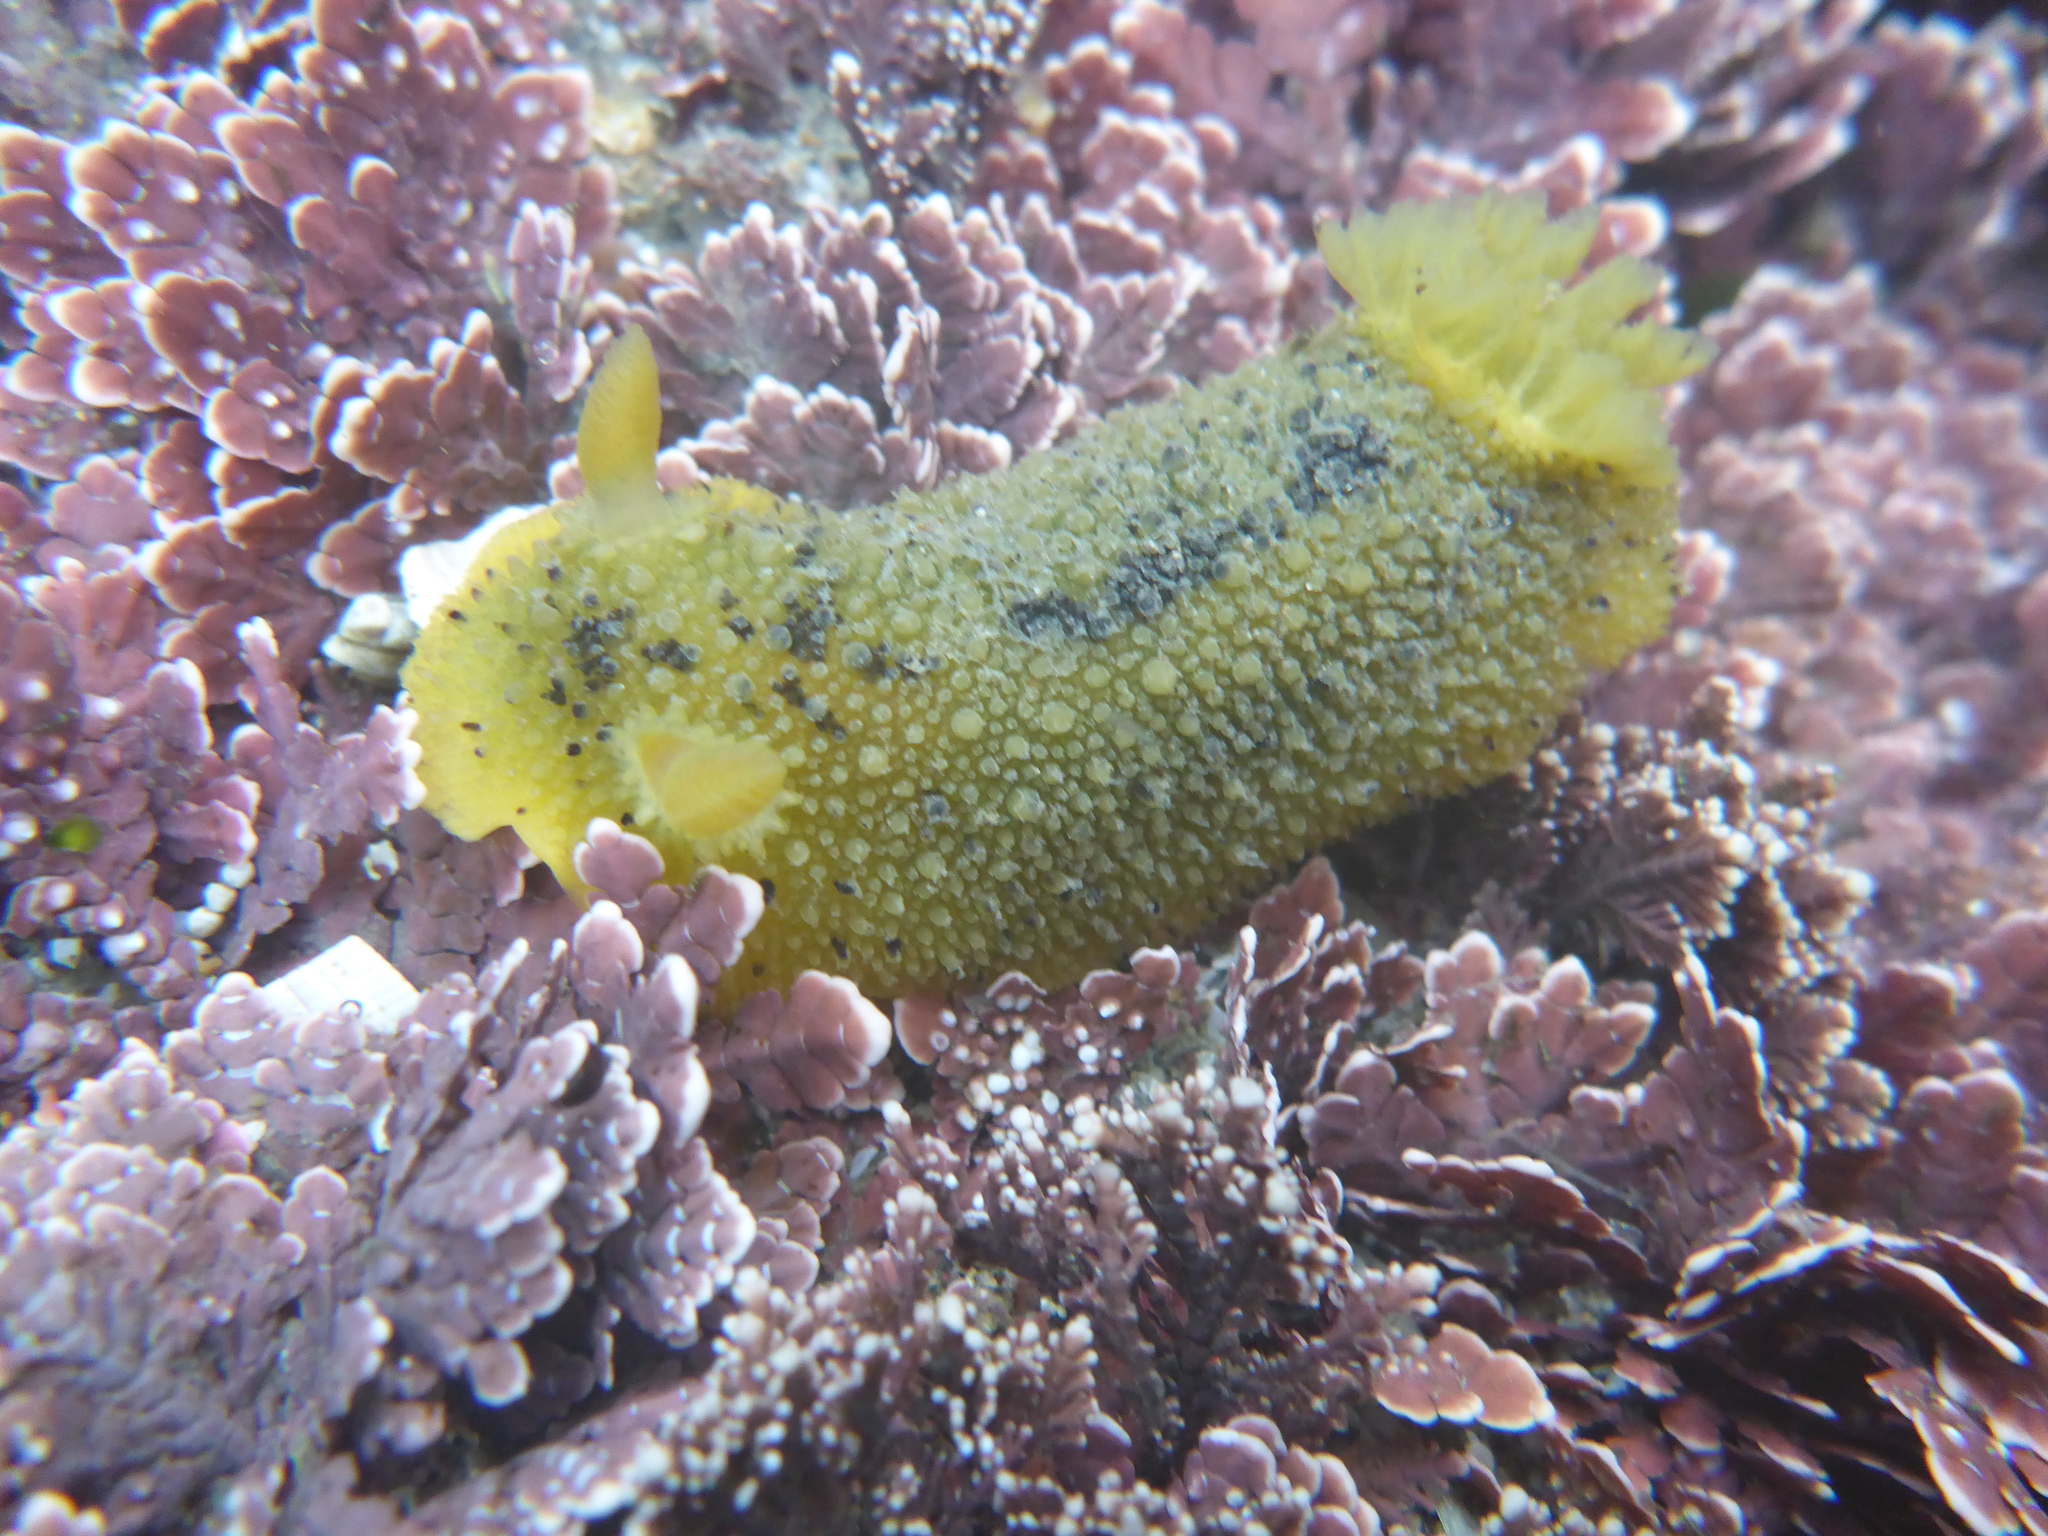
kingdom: Animalia
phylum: Mollusca
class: Gastropoda
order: Nudibranchia
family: Dorididae
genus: Doris
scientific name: Doris montereyensis
